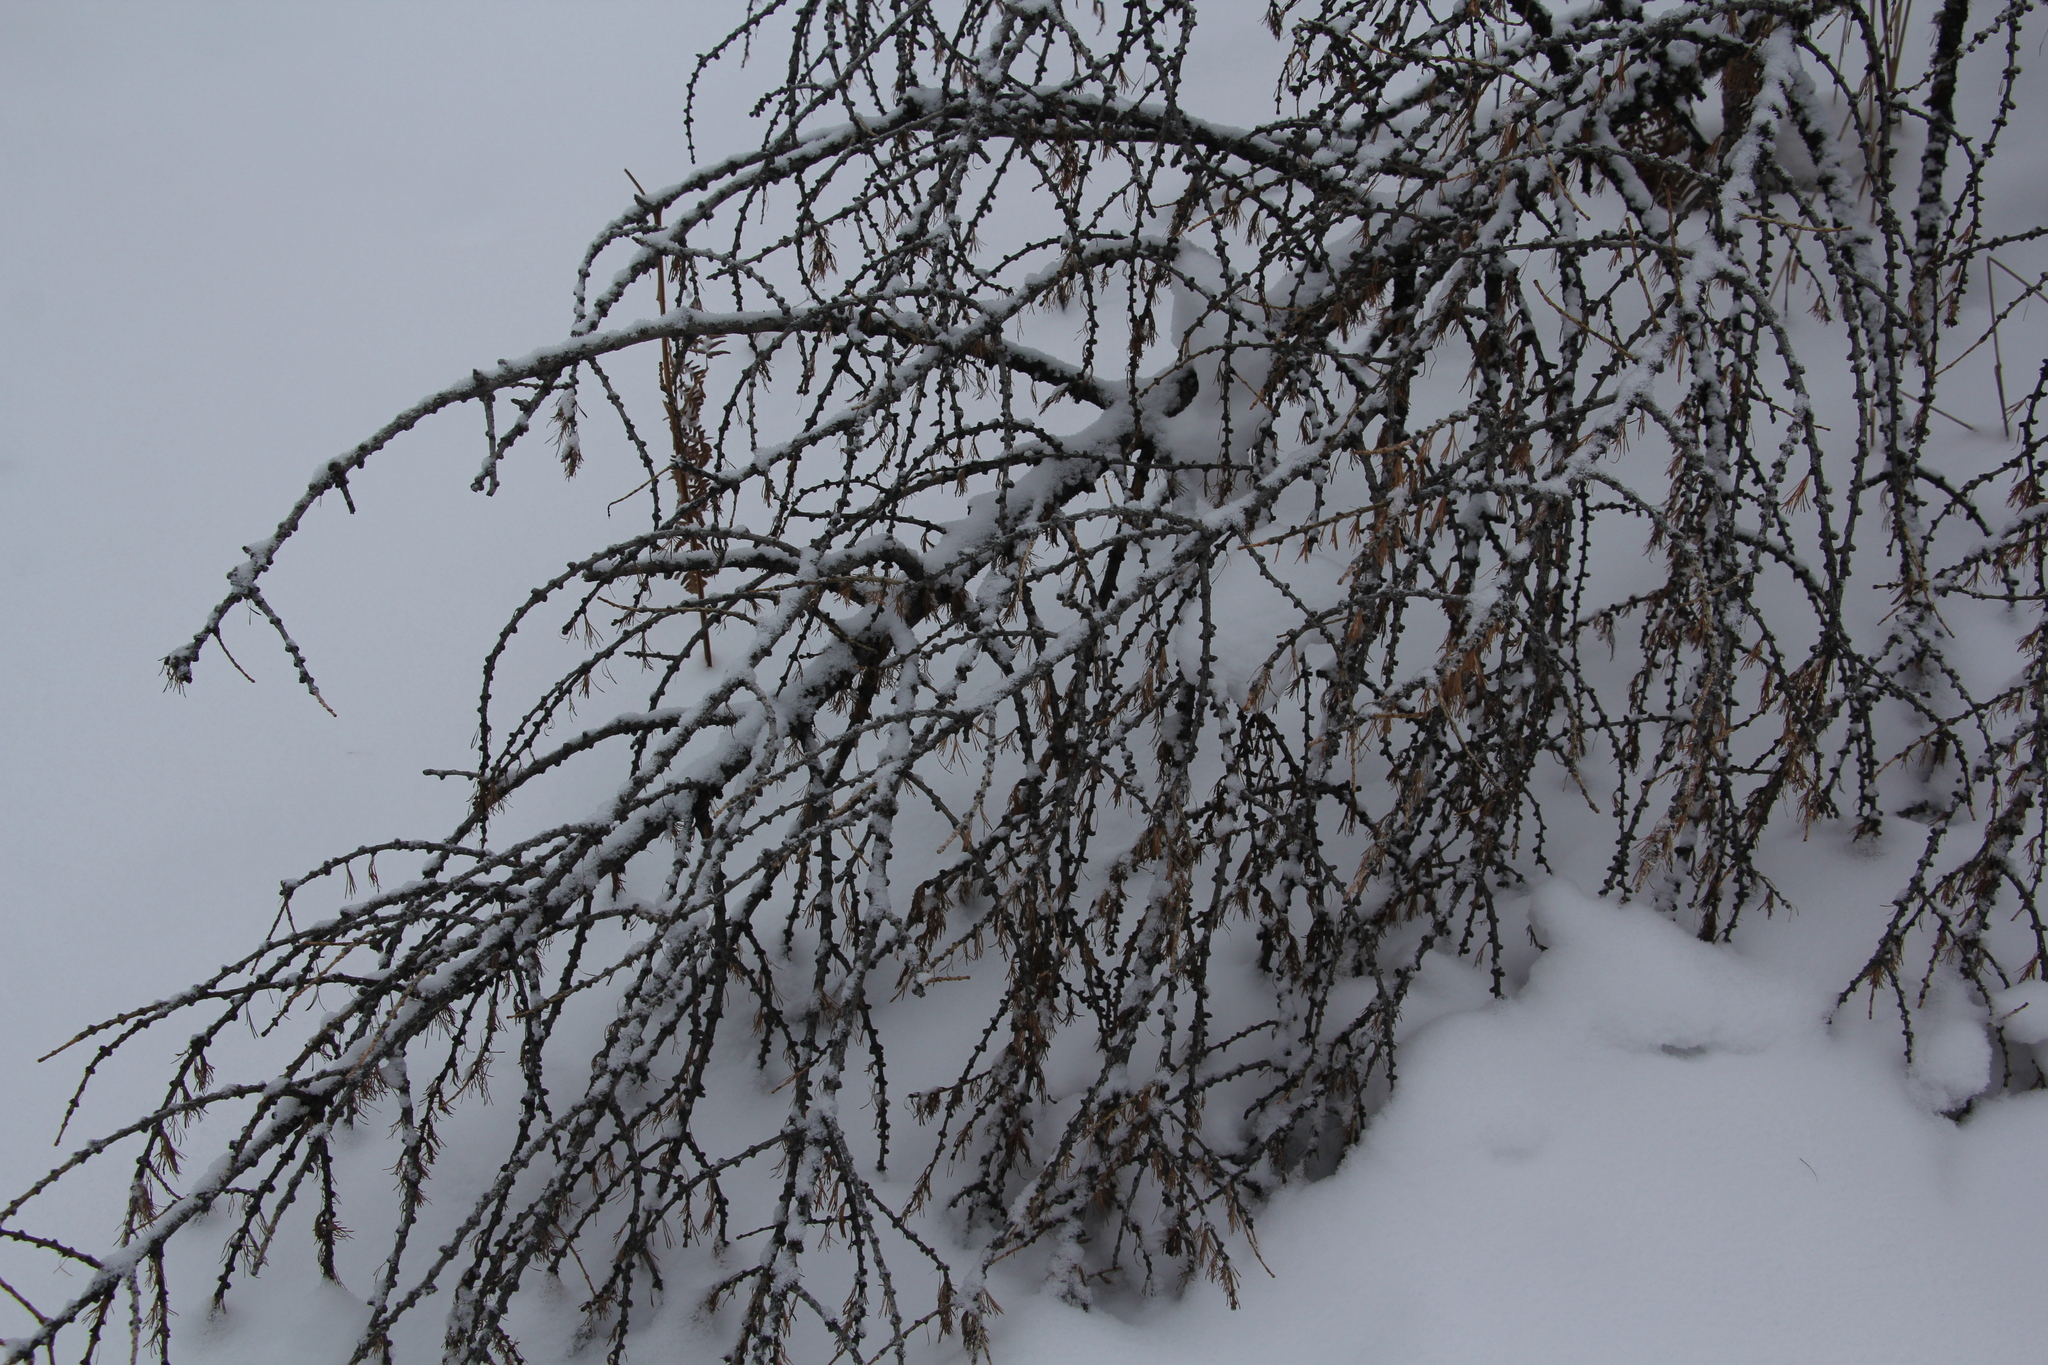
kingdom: Plantae
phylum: Tracheophyta
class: Pinopsida
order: Pinales
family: Pinaceae
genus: Larix
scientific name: Larix sibirica
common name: Siberian larch
